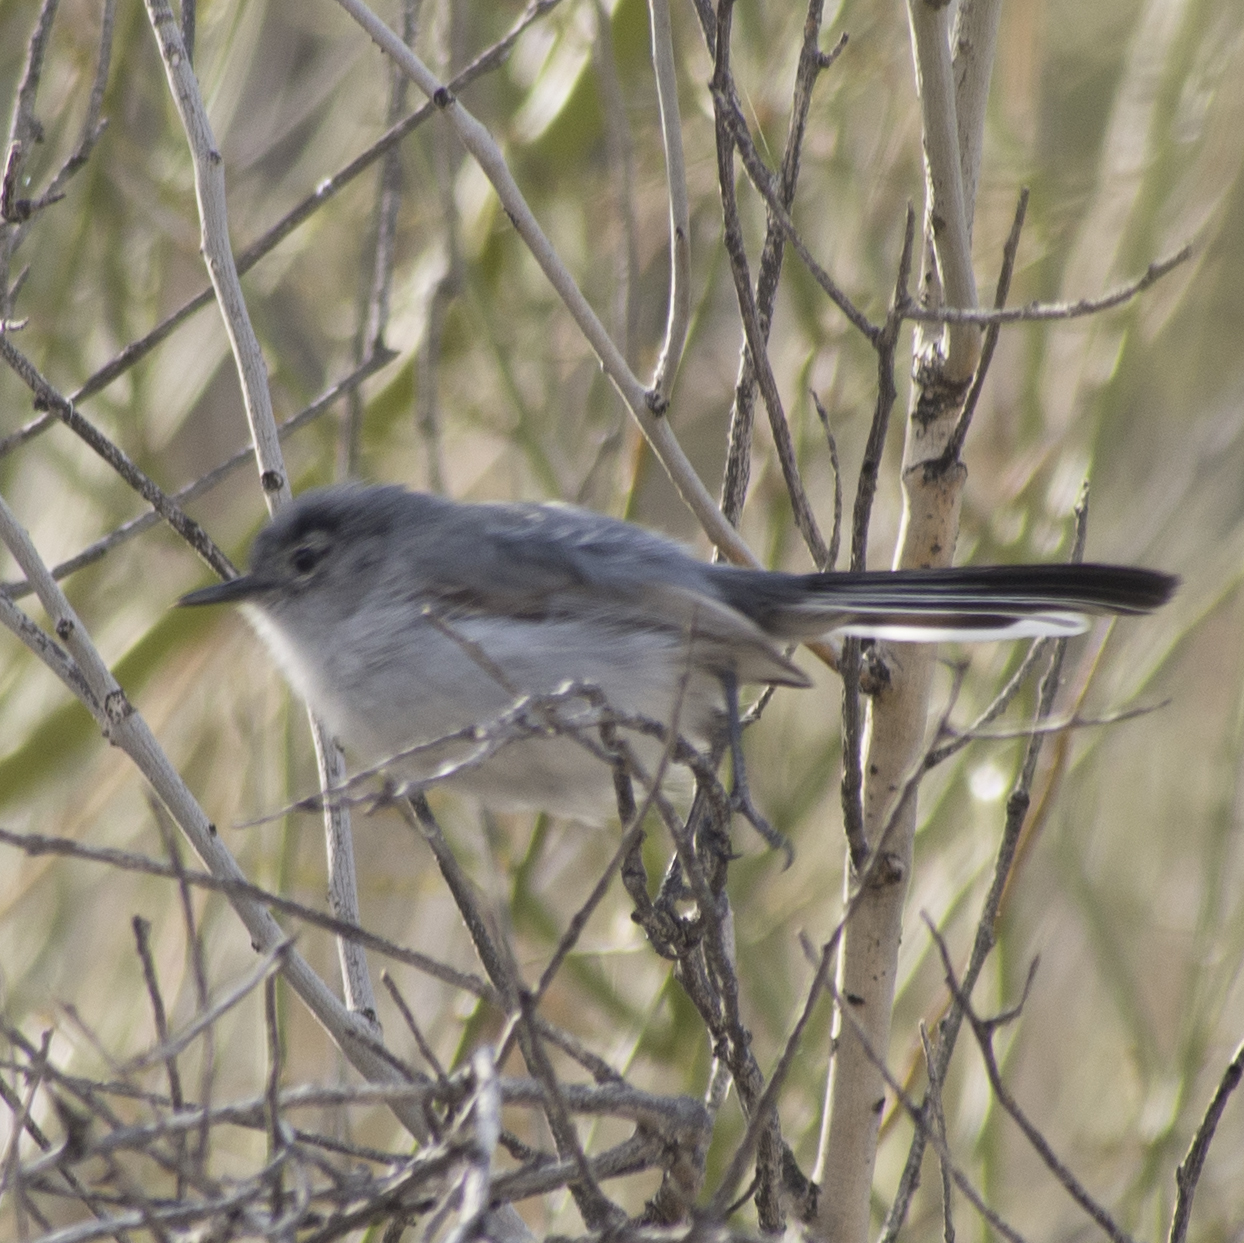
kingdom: Animalia
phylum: Chordata
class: Aves
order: Passeriformes
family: Polioptilidae
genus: Polioptila
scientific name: Polioptila melanura
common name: Black-tailed gnatcatcher
